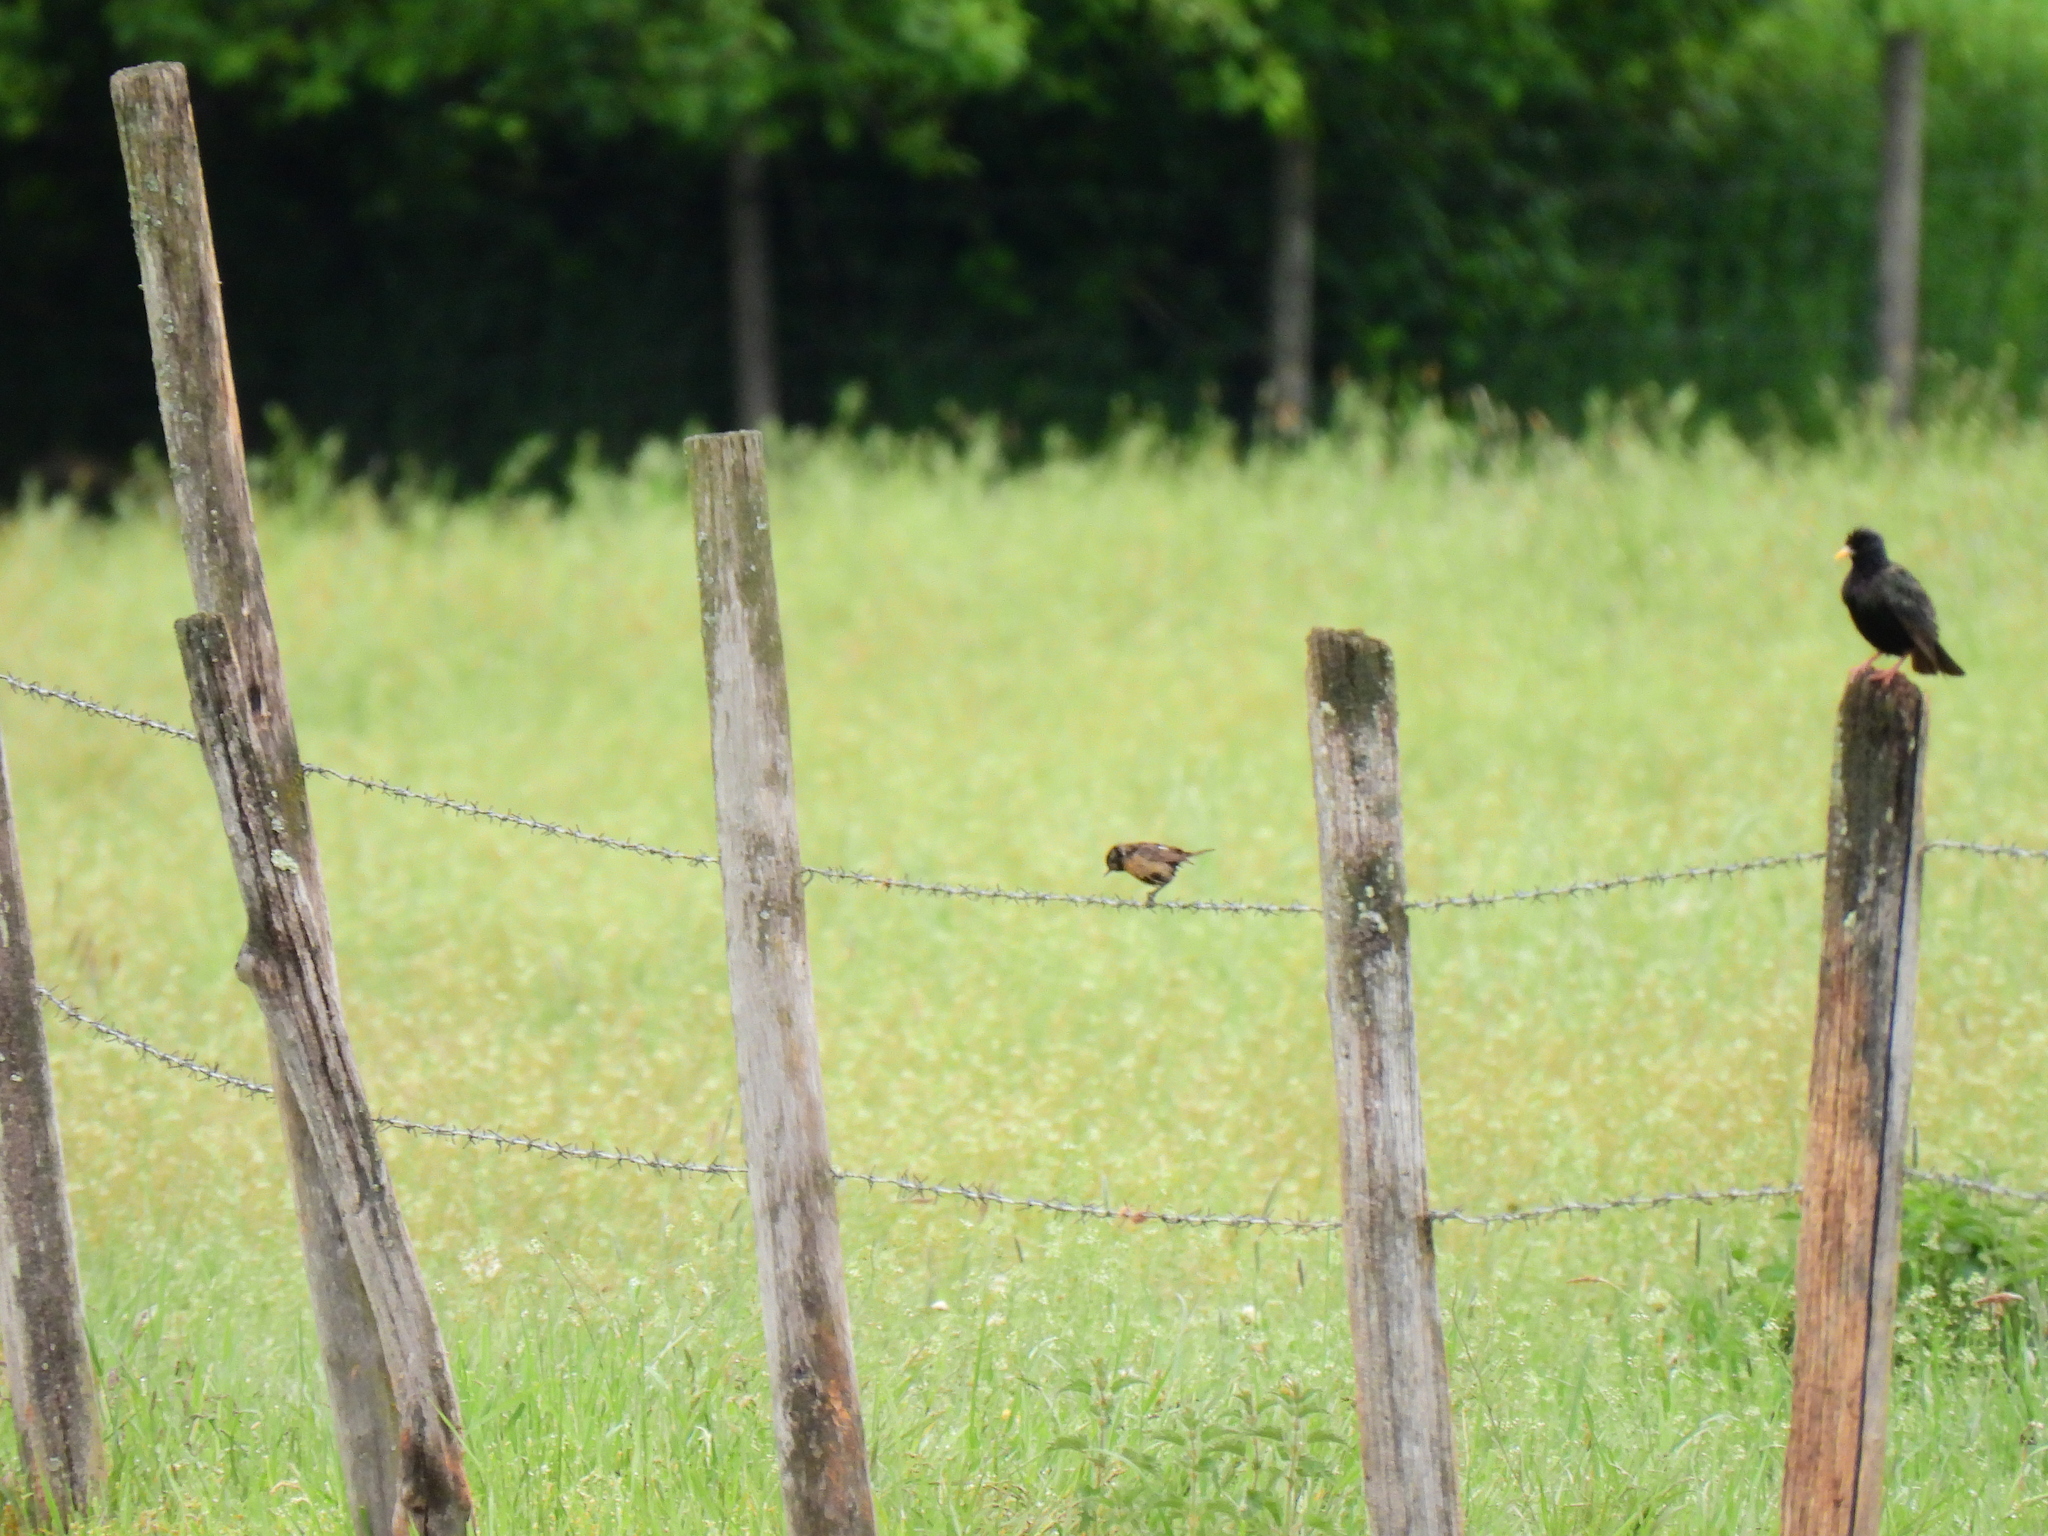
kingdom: Animalia
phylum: Chordata
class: Aves
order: Passeriformes
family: Muscicapidae
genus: Saxicola
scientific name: Saxicola rubicola
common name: European stonechat
